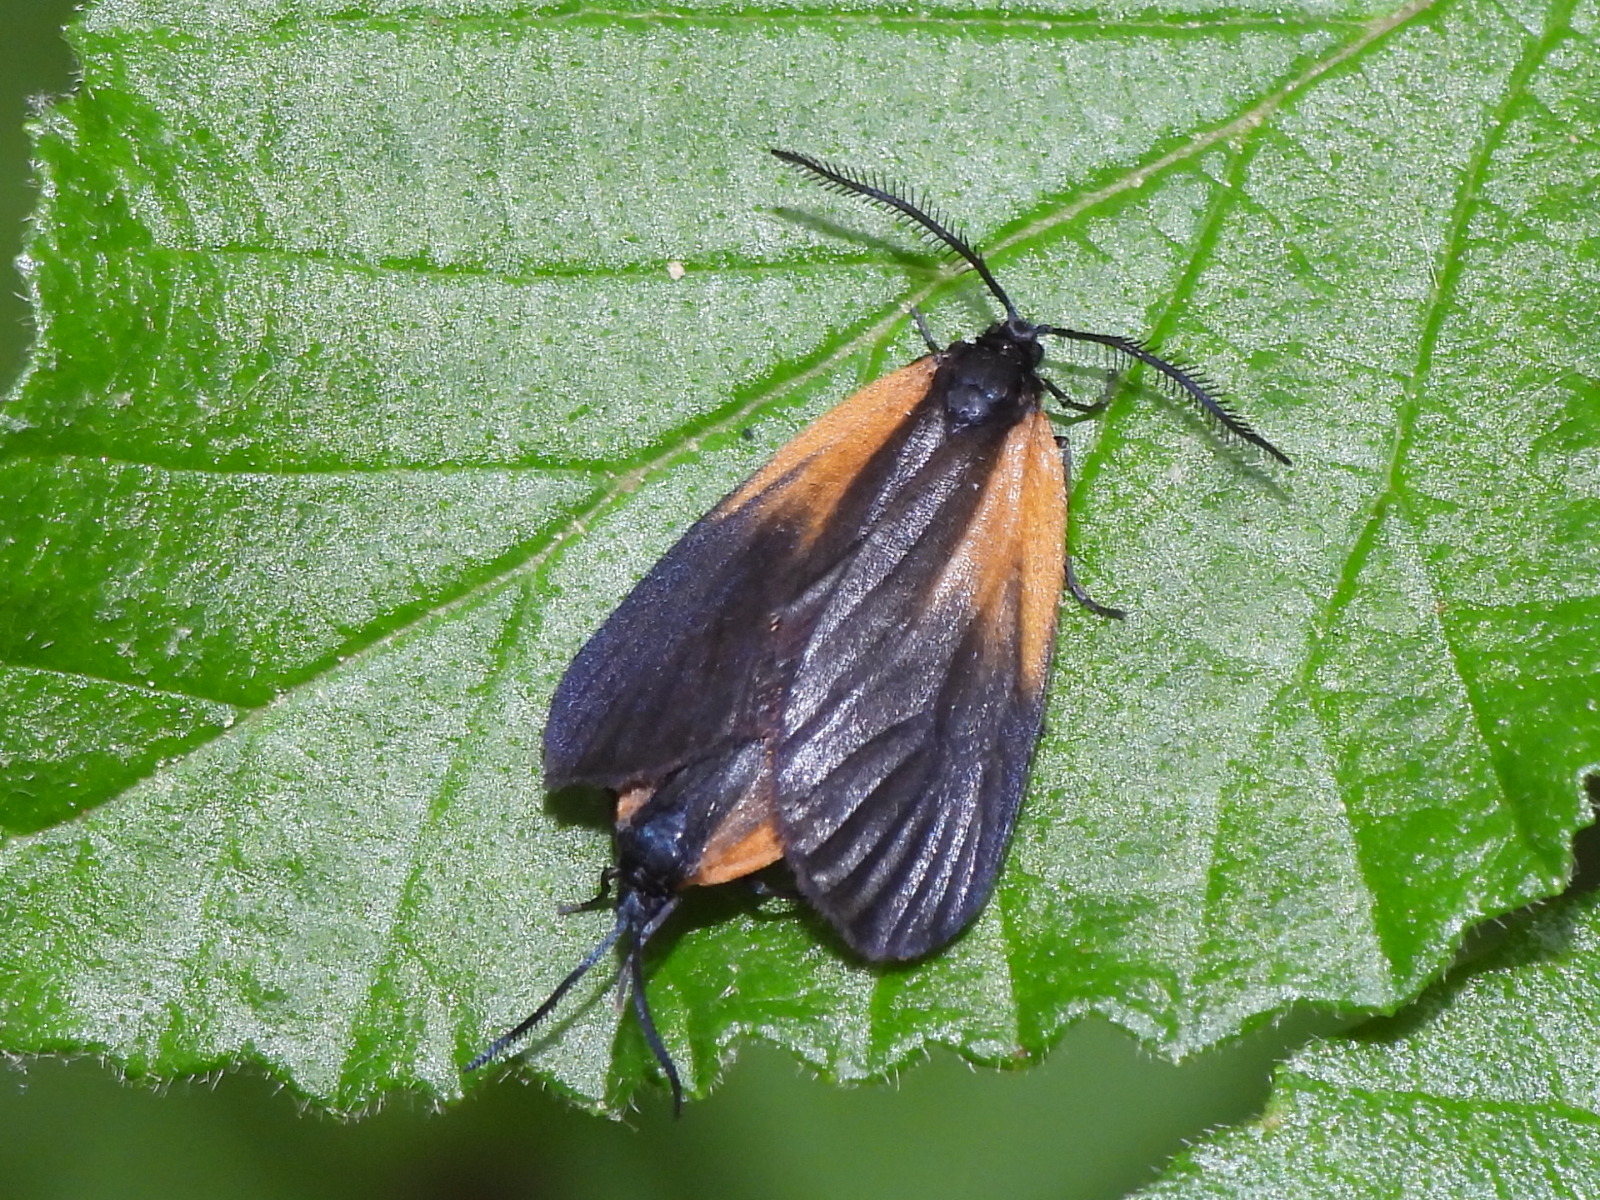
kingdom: Animalia
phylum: Arthropoda
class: Insecta
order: Lepidoptera
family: Zygaenidae
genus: Malthaca
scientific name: Malthaca dimidiata
